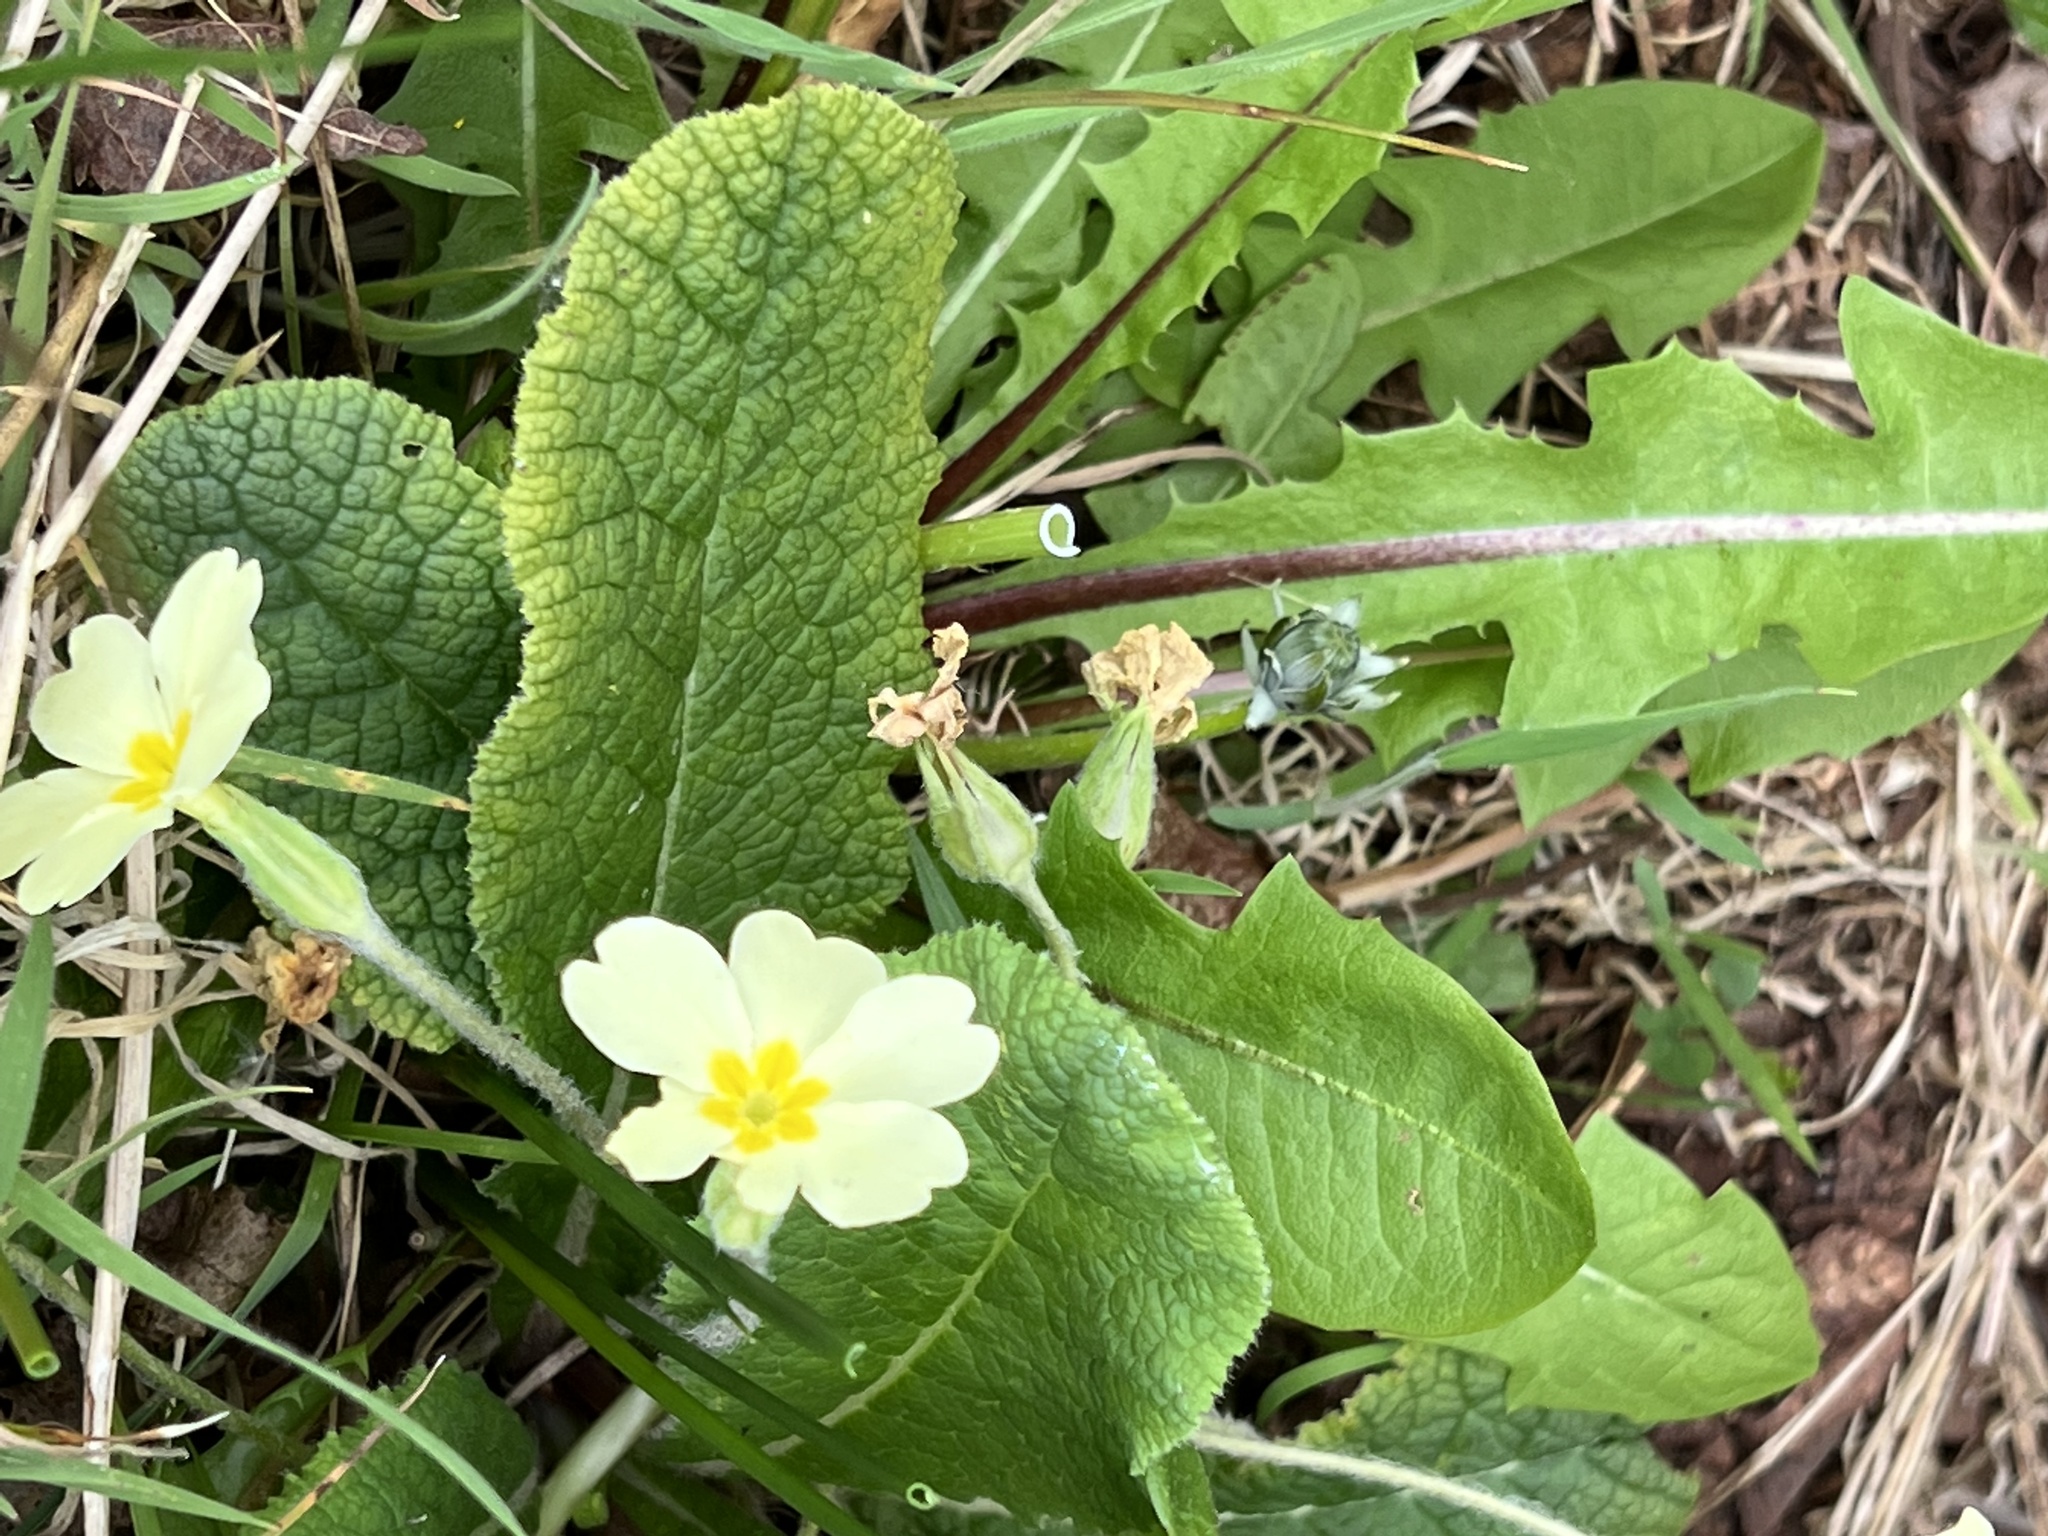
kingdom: Plantae
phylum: Tracheophyta
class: Magnoliopsida
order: Ericales
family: Primulaceae
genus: Primula
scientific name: Primula vulgaris
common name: Primrose
